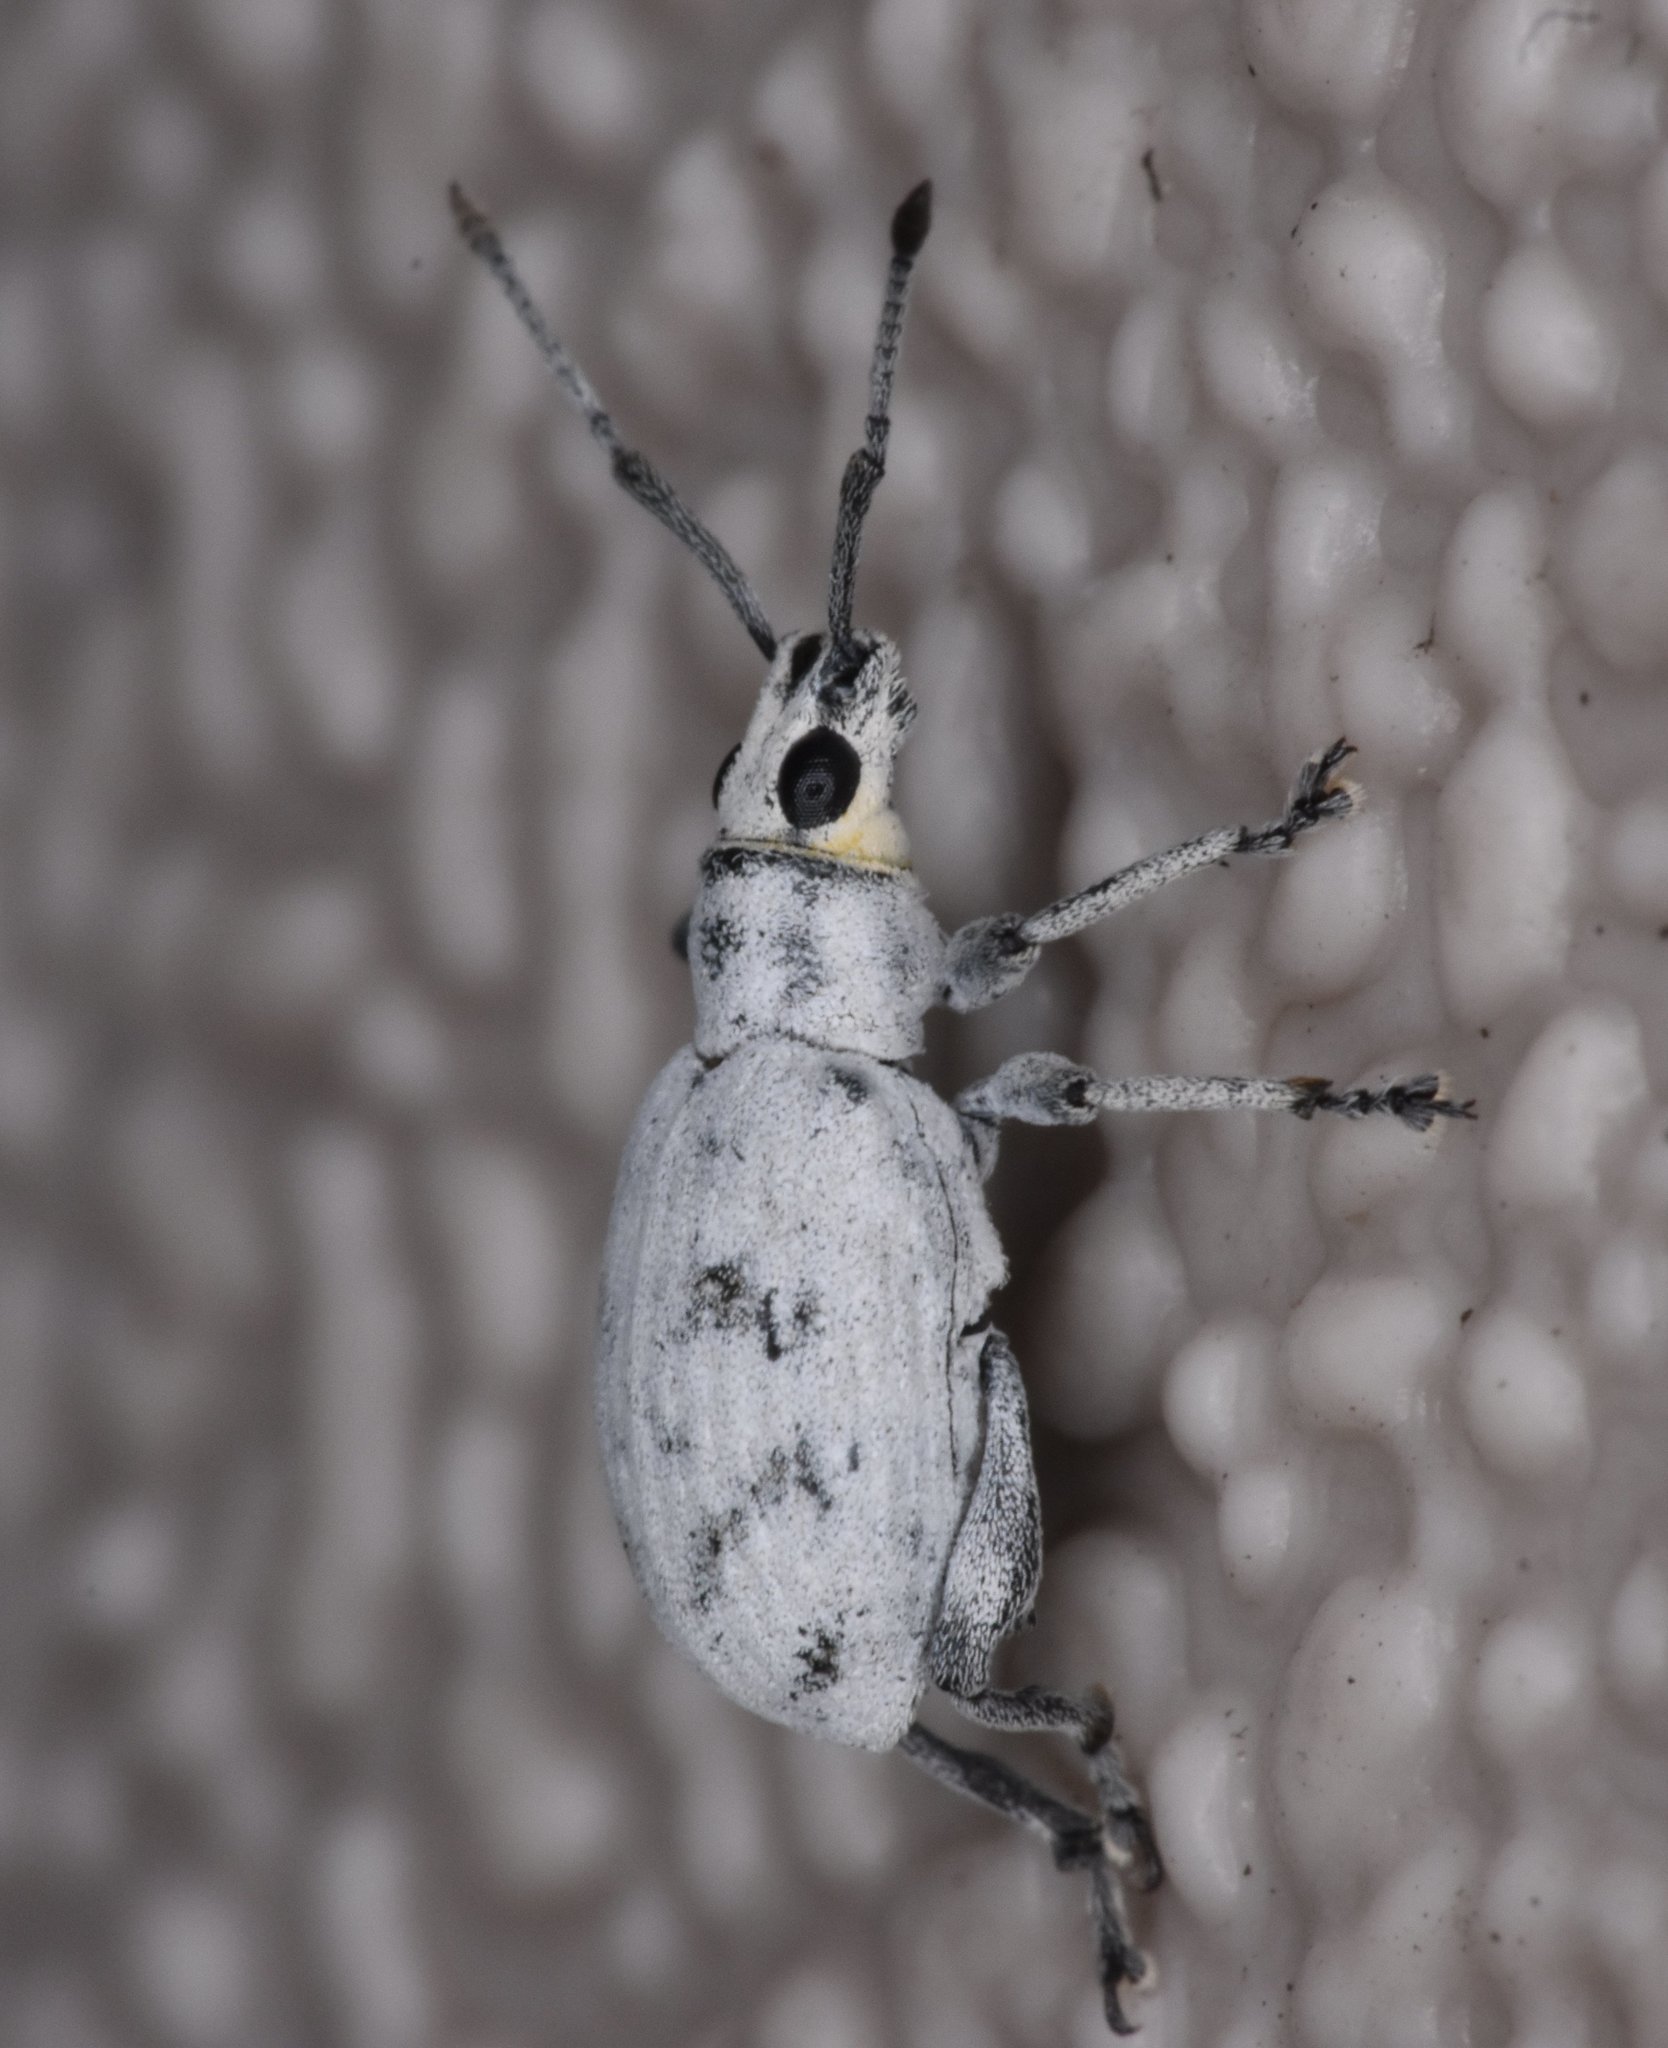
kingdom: Animalia
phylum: Arthropoda
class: Insecta
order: Coleoptera
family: Curculionidae
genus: Myllocerus
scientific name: Myllocerus undecimpustulatus
